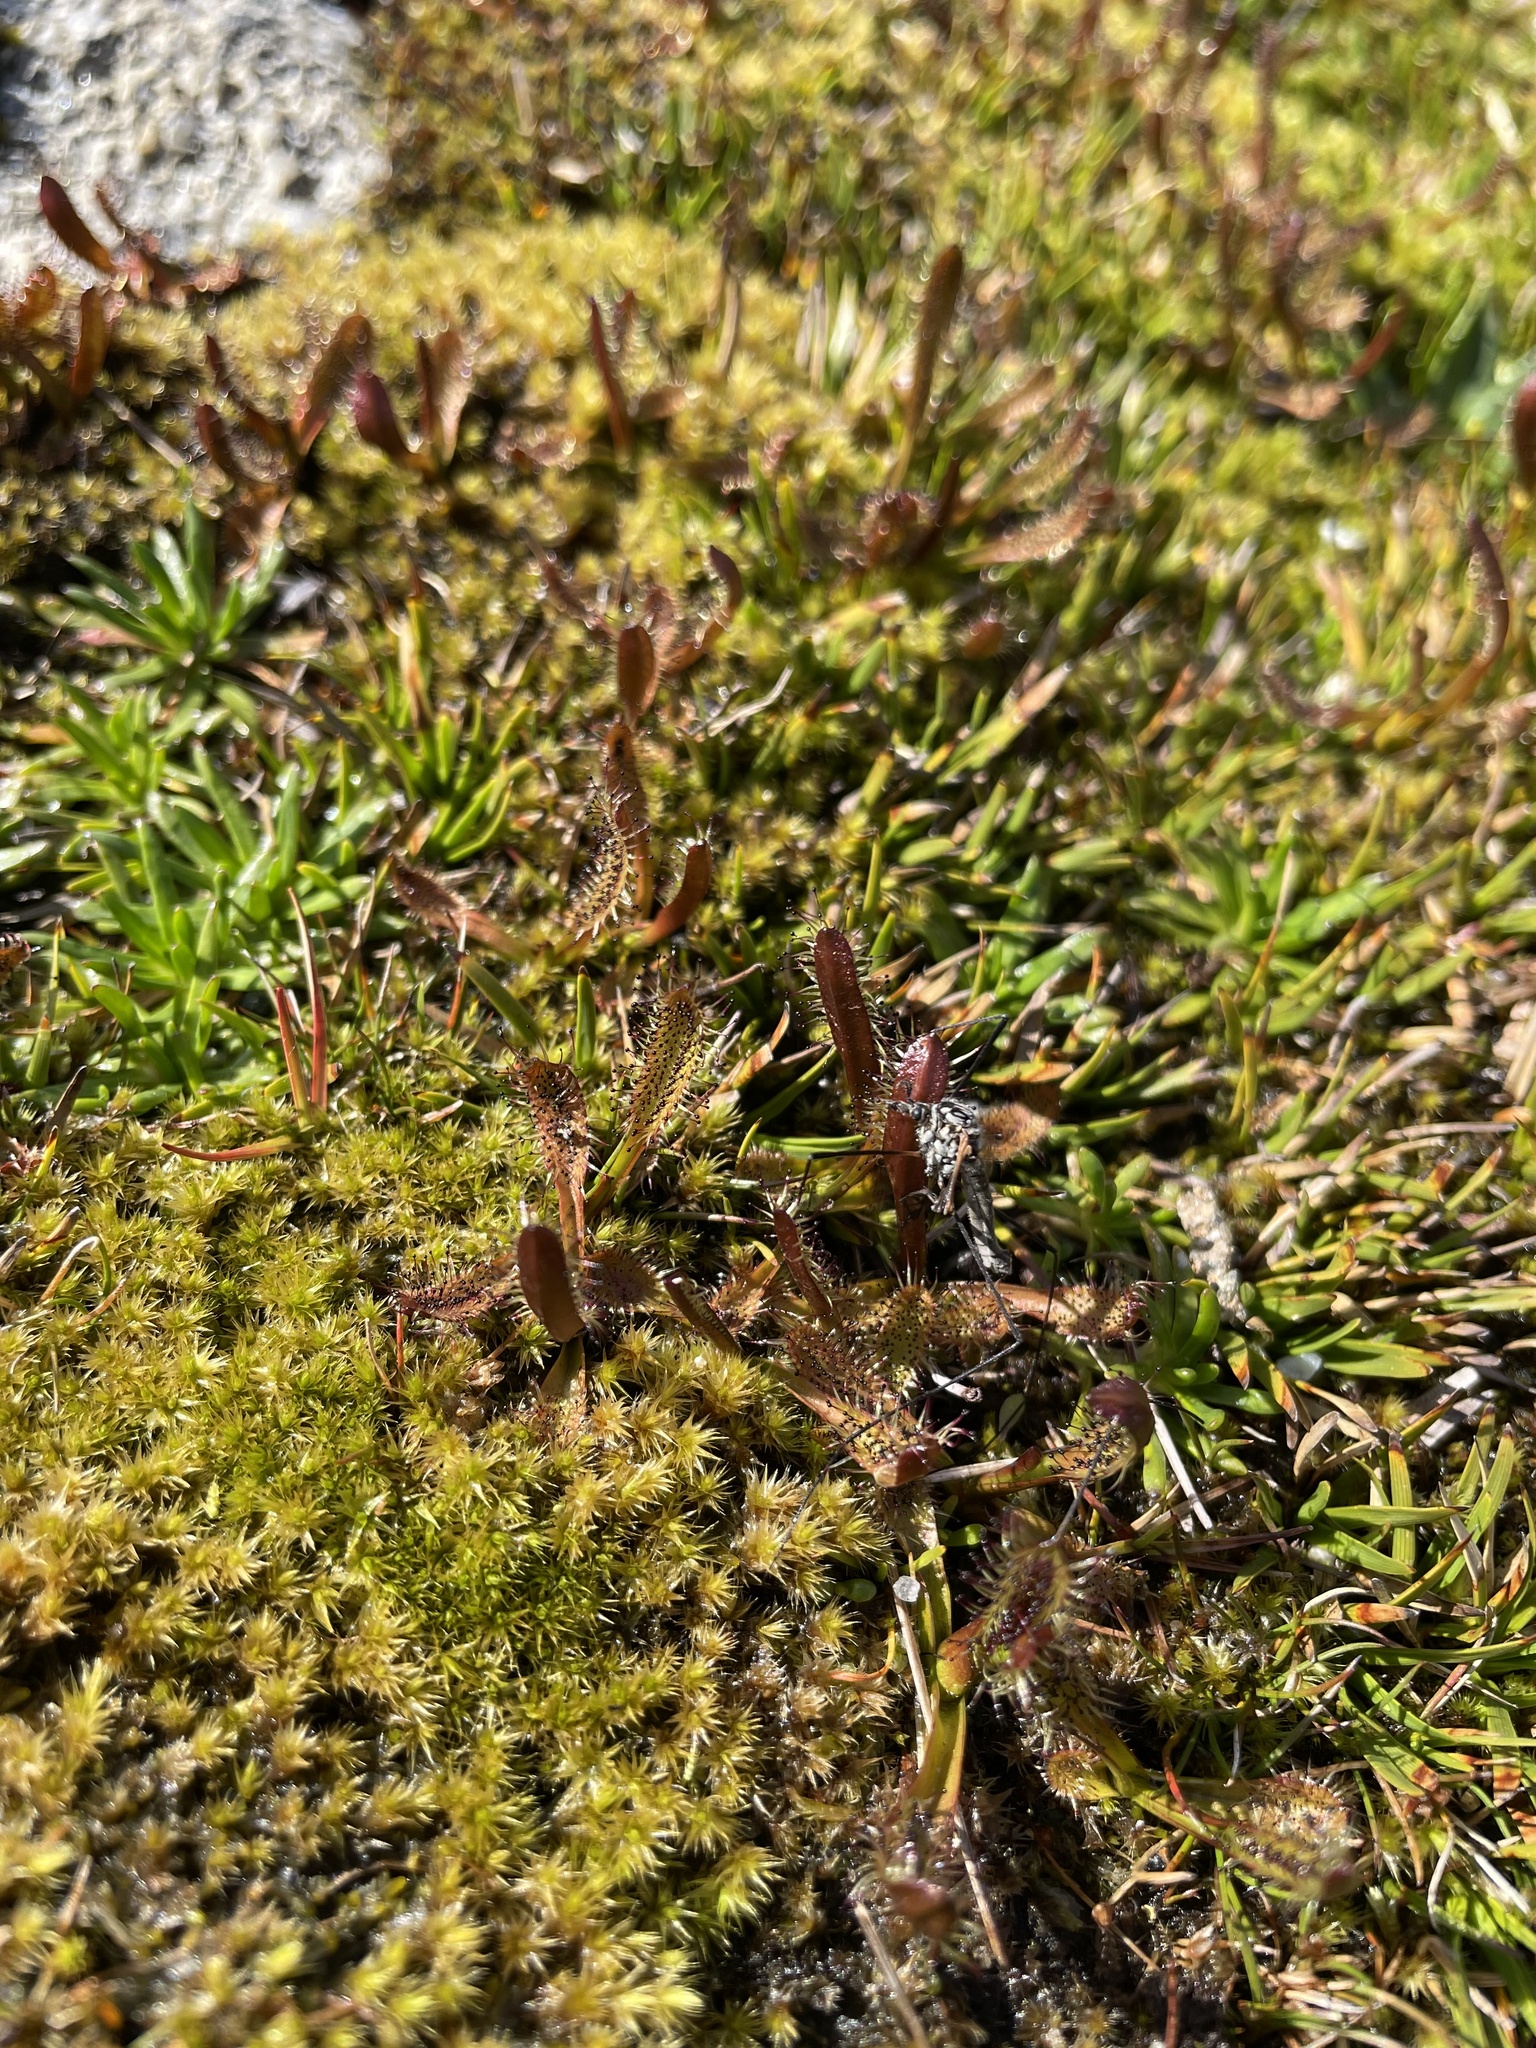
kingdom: Plantae
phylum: Tracheophyta
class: Magnoliopsida
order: Caryophyllales
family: Droseraceae
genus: Drosera
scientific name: Drosera arcturi
